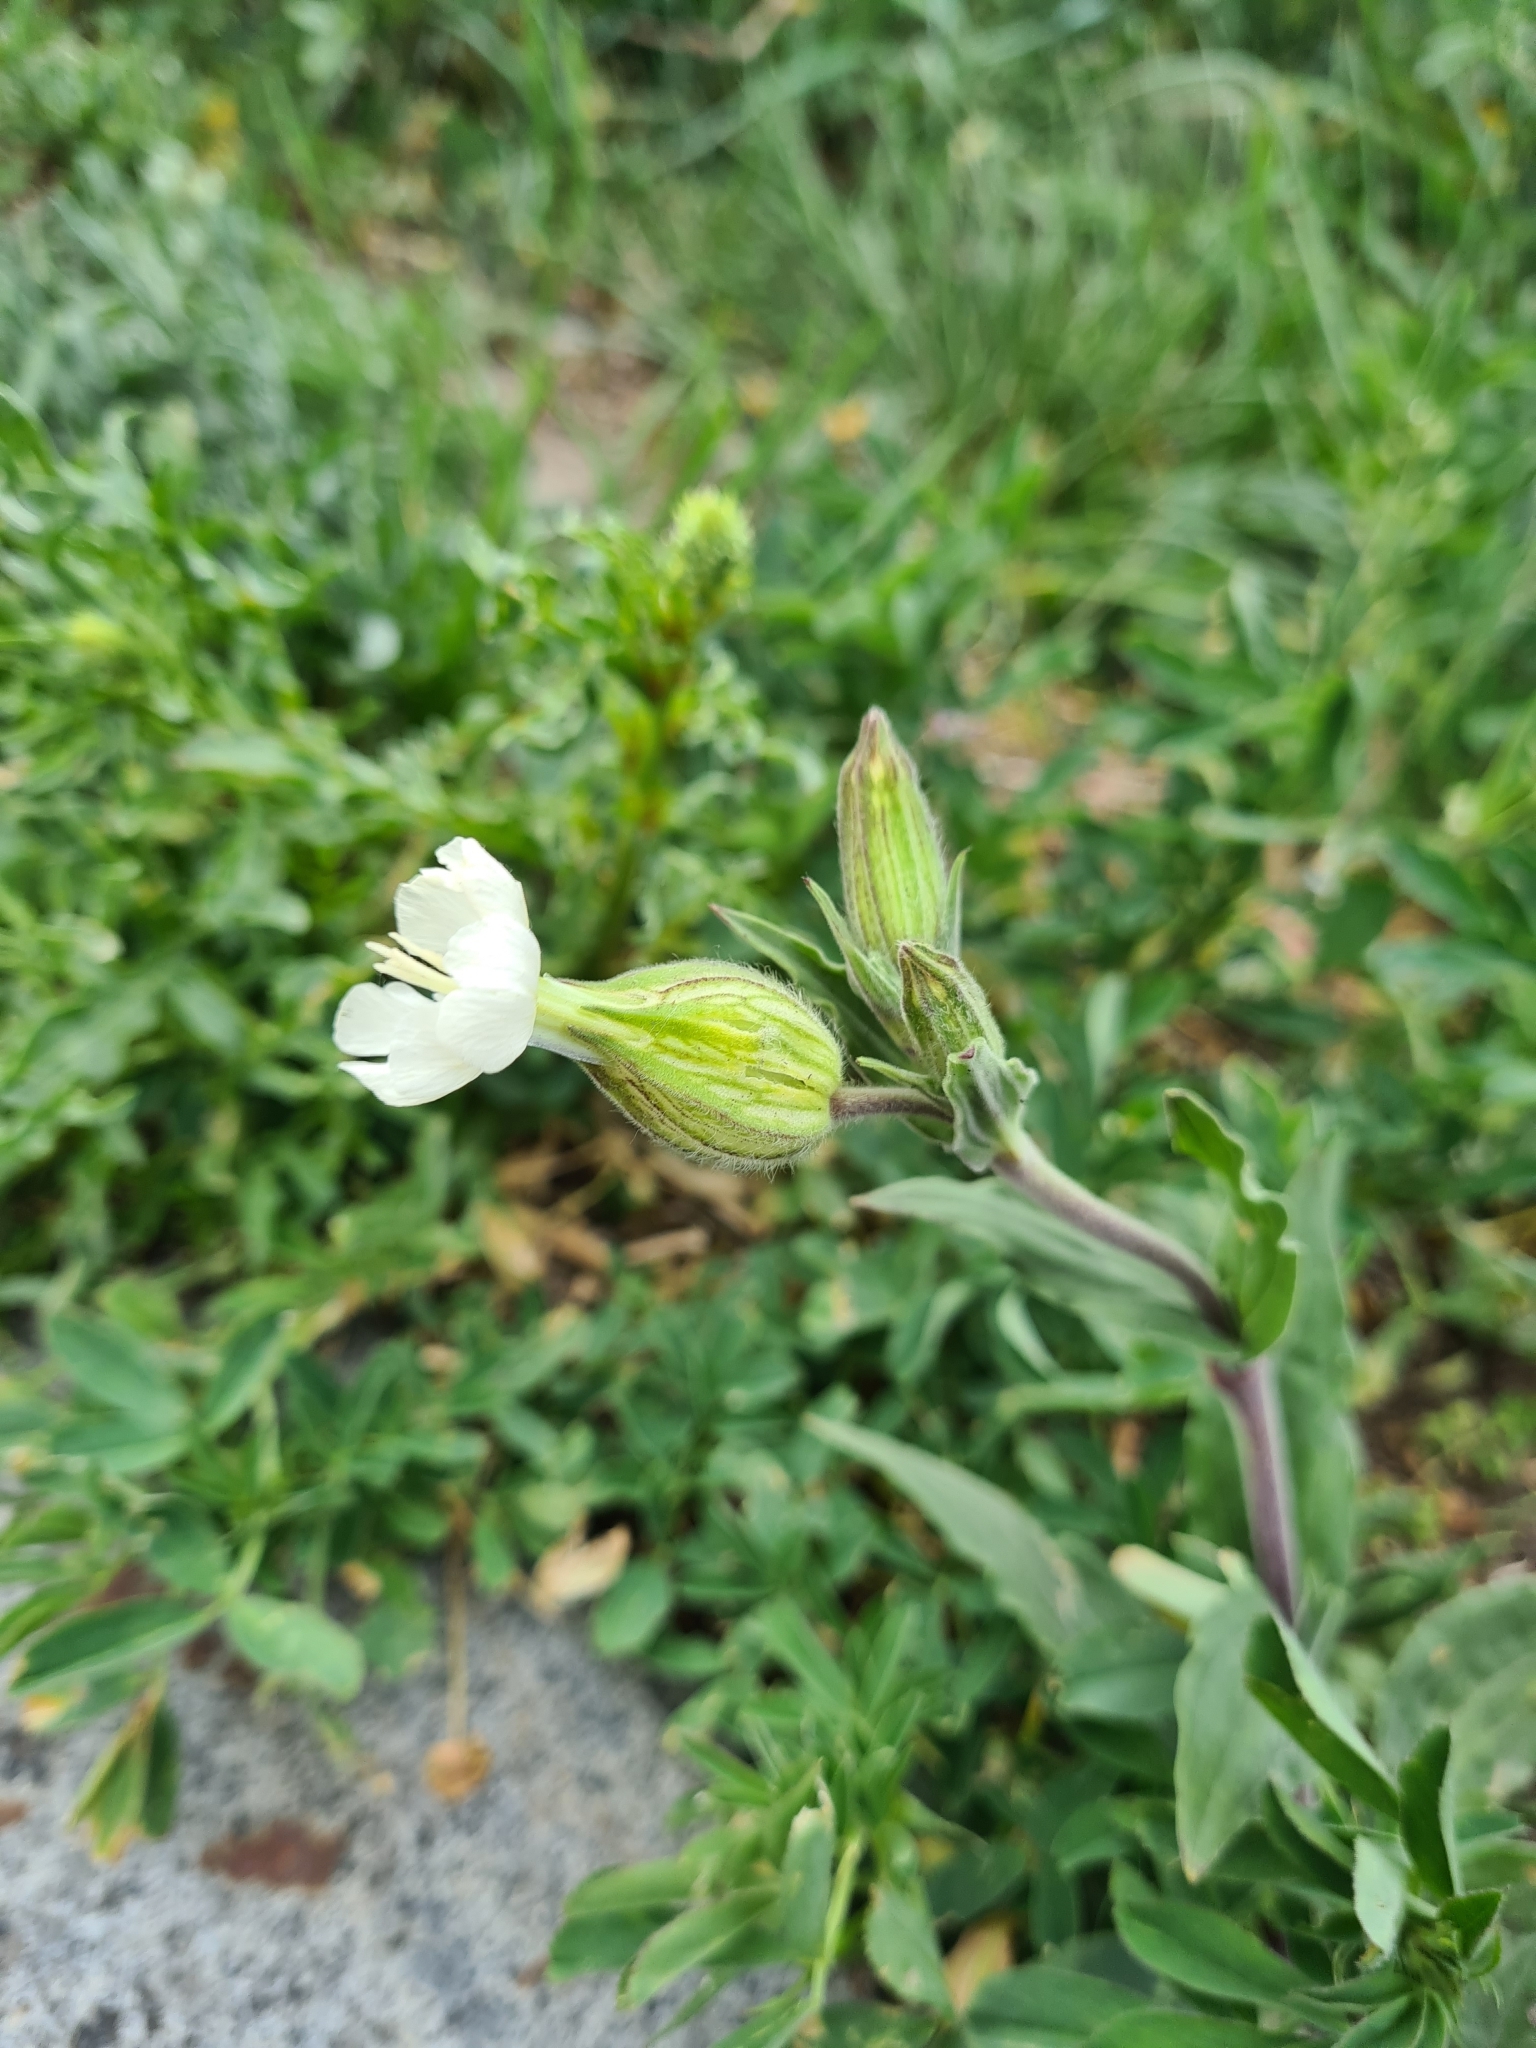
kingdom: Plantae
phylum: Tracheophyta
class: Magnoliopsida
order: Caryophyllales
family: Caryophyllaceae
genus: Silene
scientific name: Silene latifolia
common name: White campion
